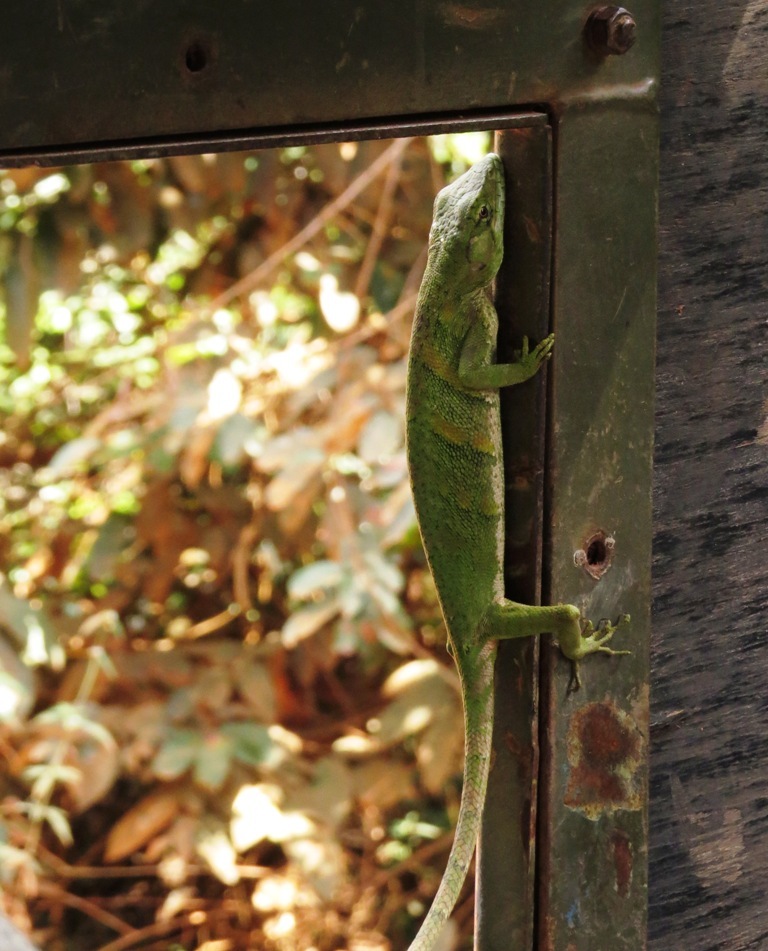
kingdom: Animalia
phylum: Chordata
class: Squamata
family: Polychrotidae
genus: Polychrus
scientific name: Polychrus marmoratus
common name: Many-colored bush anole
